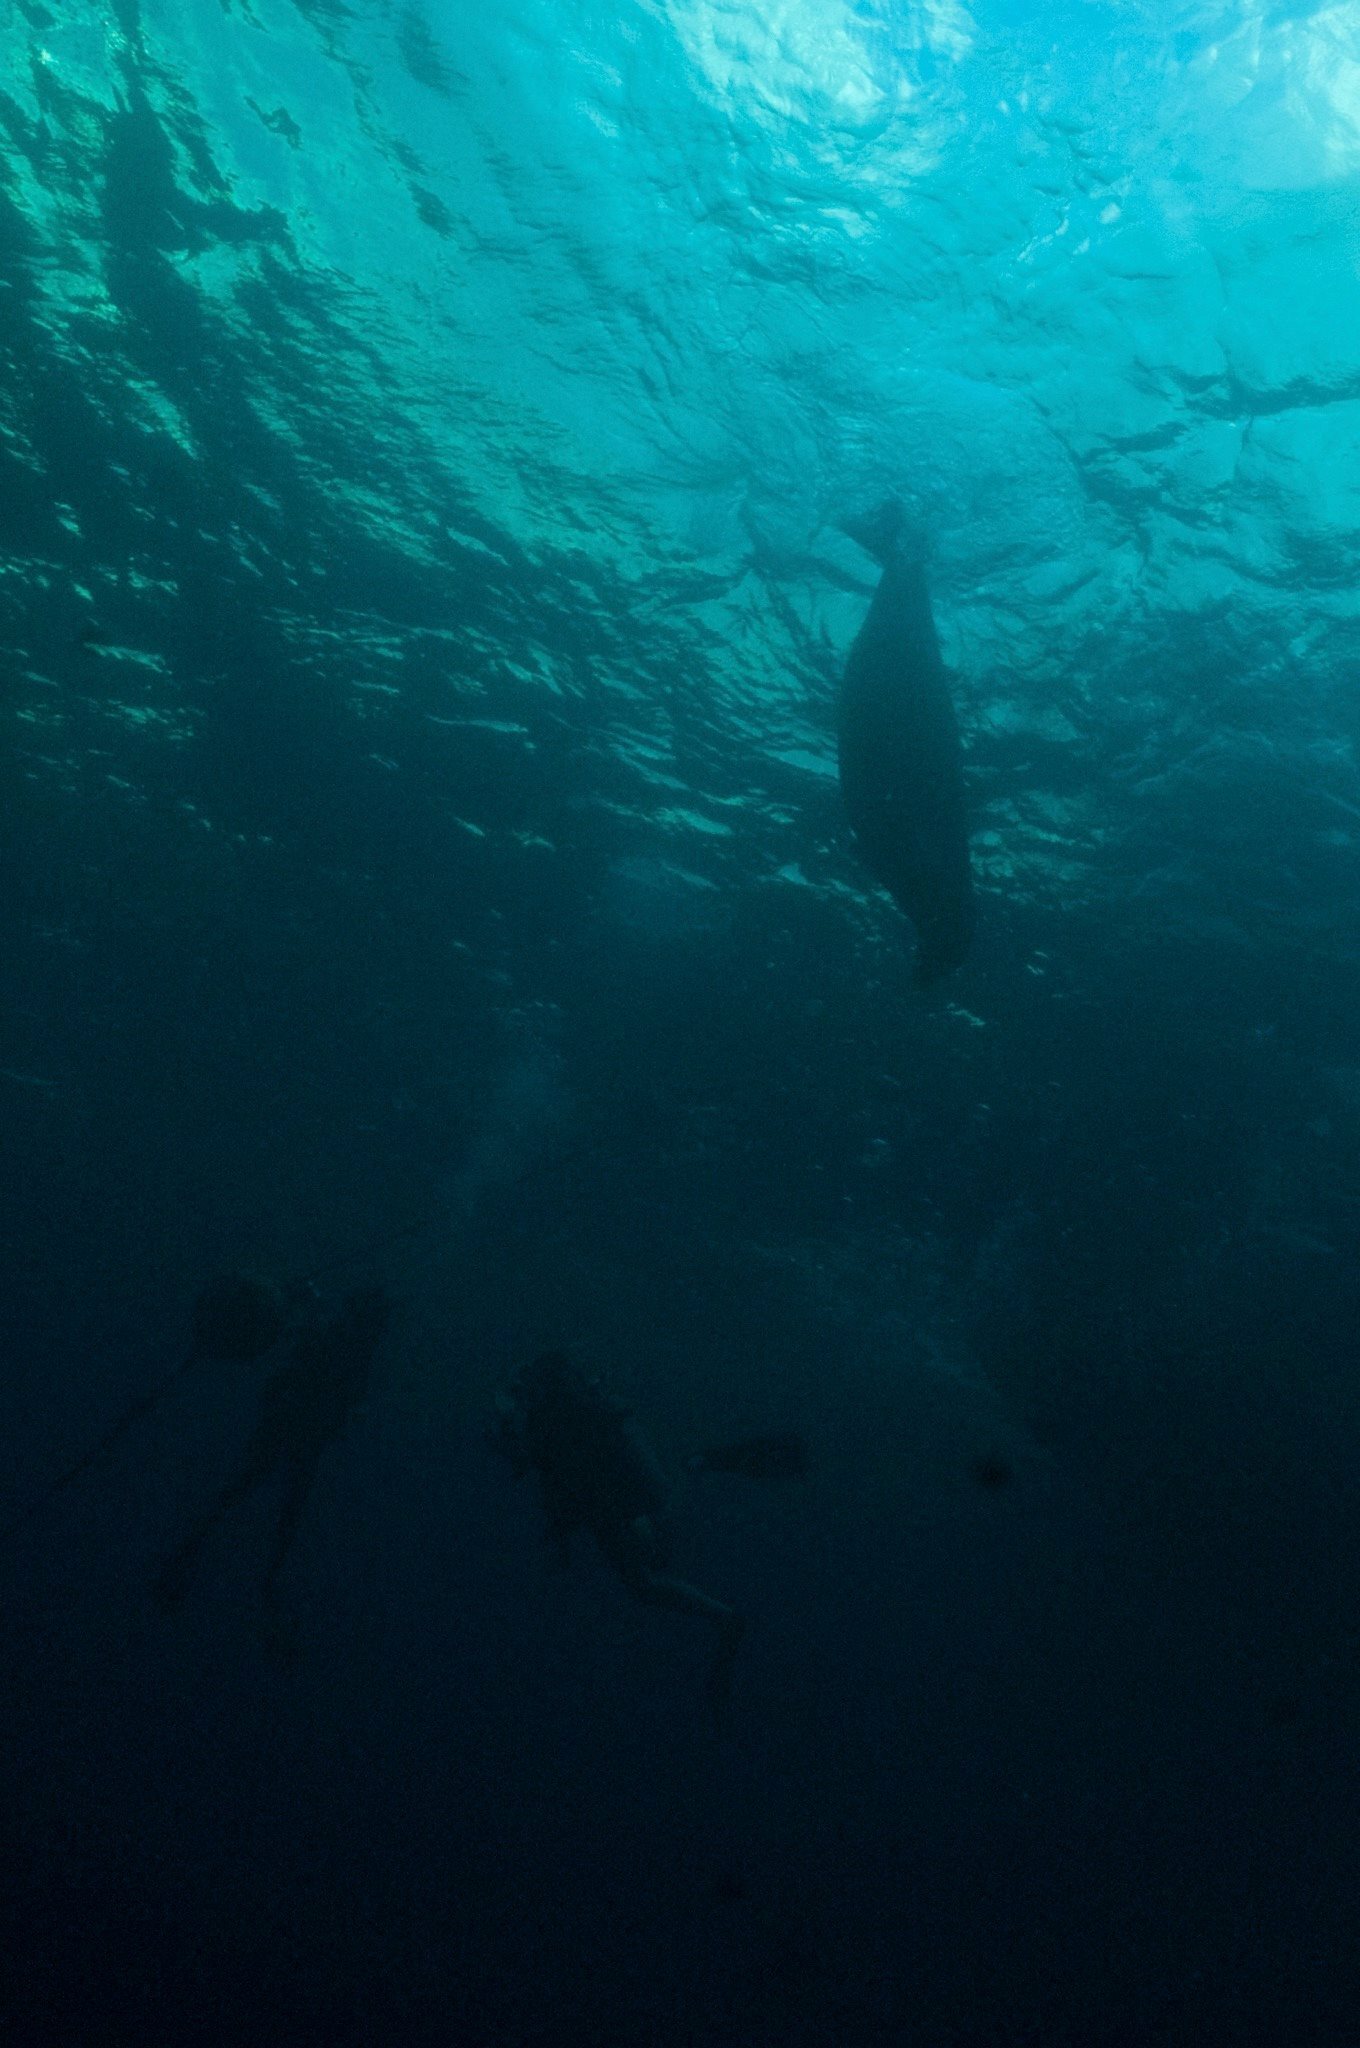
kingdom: Animalia
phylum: Chordata
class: Mammalia
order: Carnivora
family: Phocidae
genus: Neomonachus
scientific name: Neomonachus schauinslandi
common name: Hawaiian monk seal
